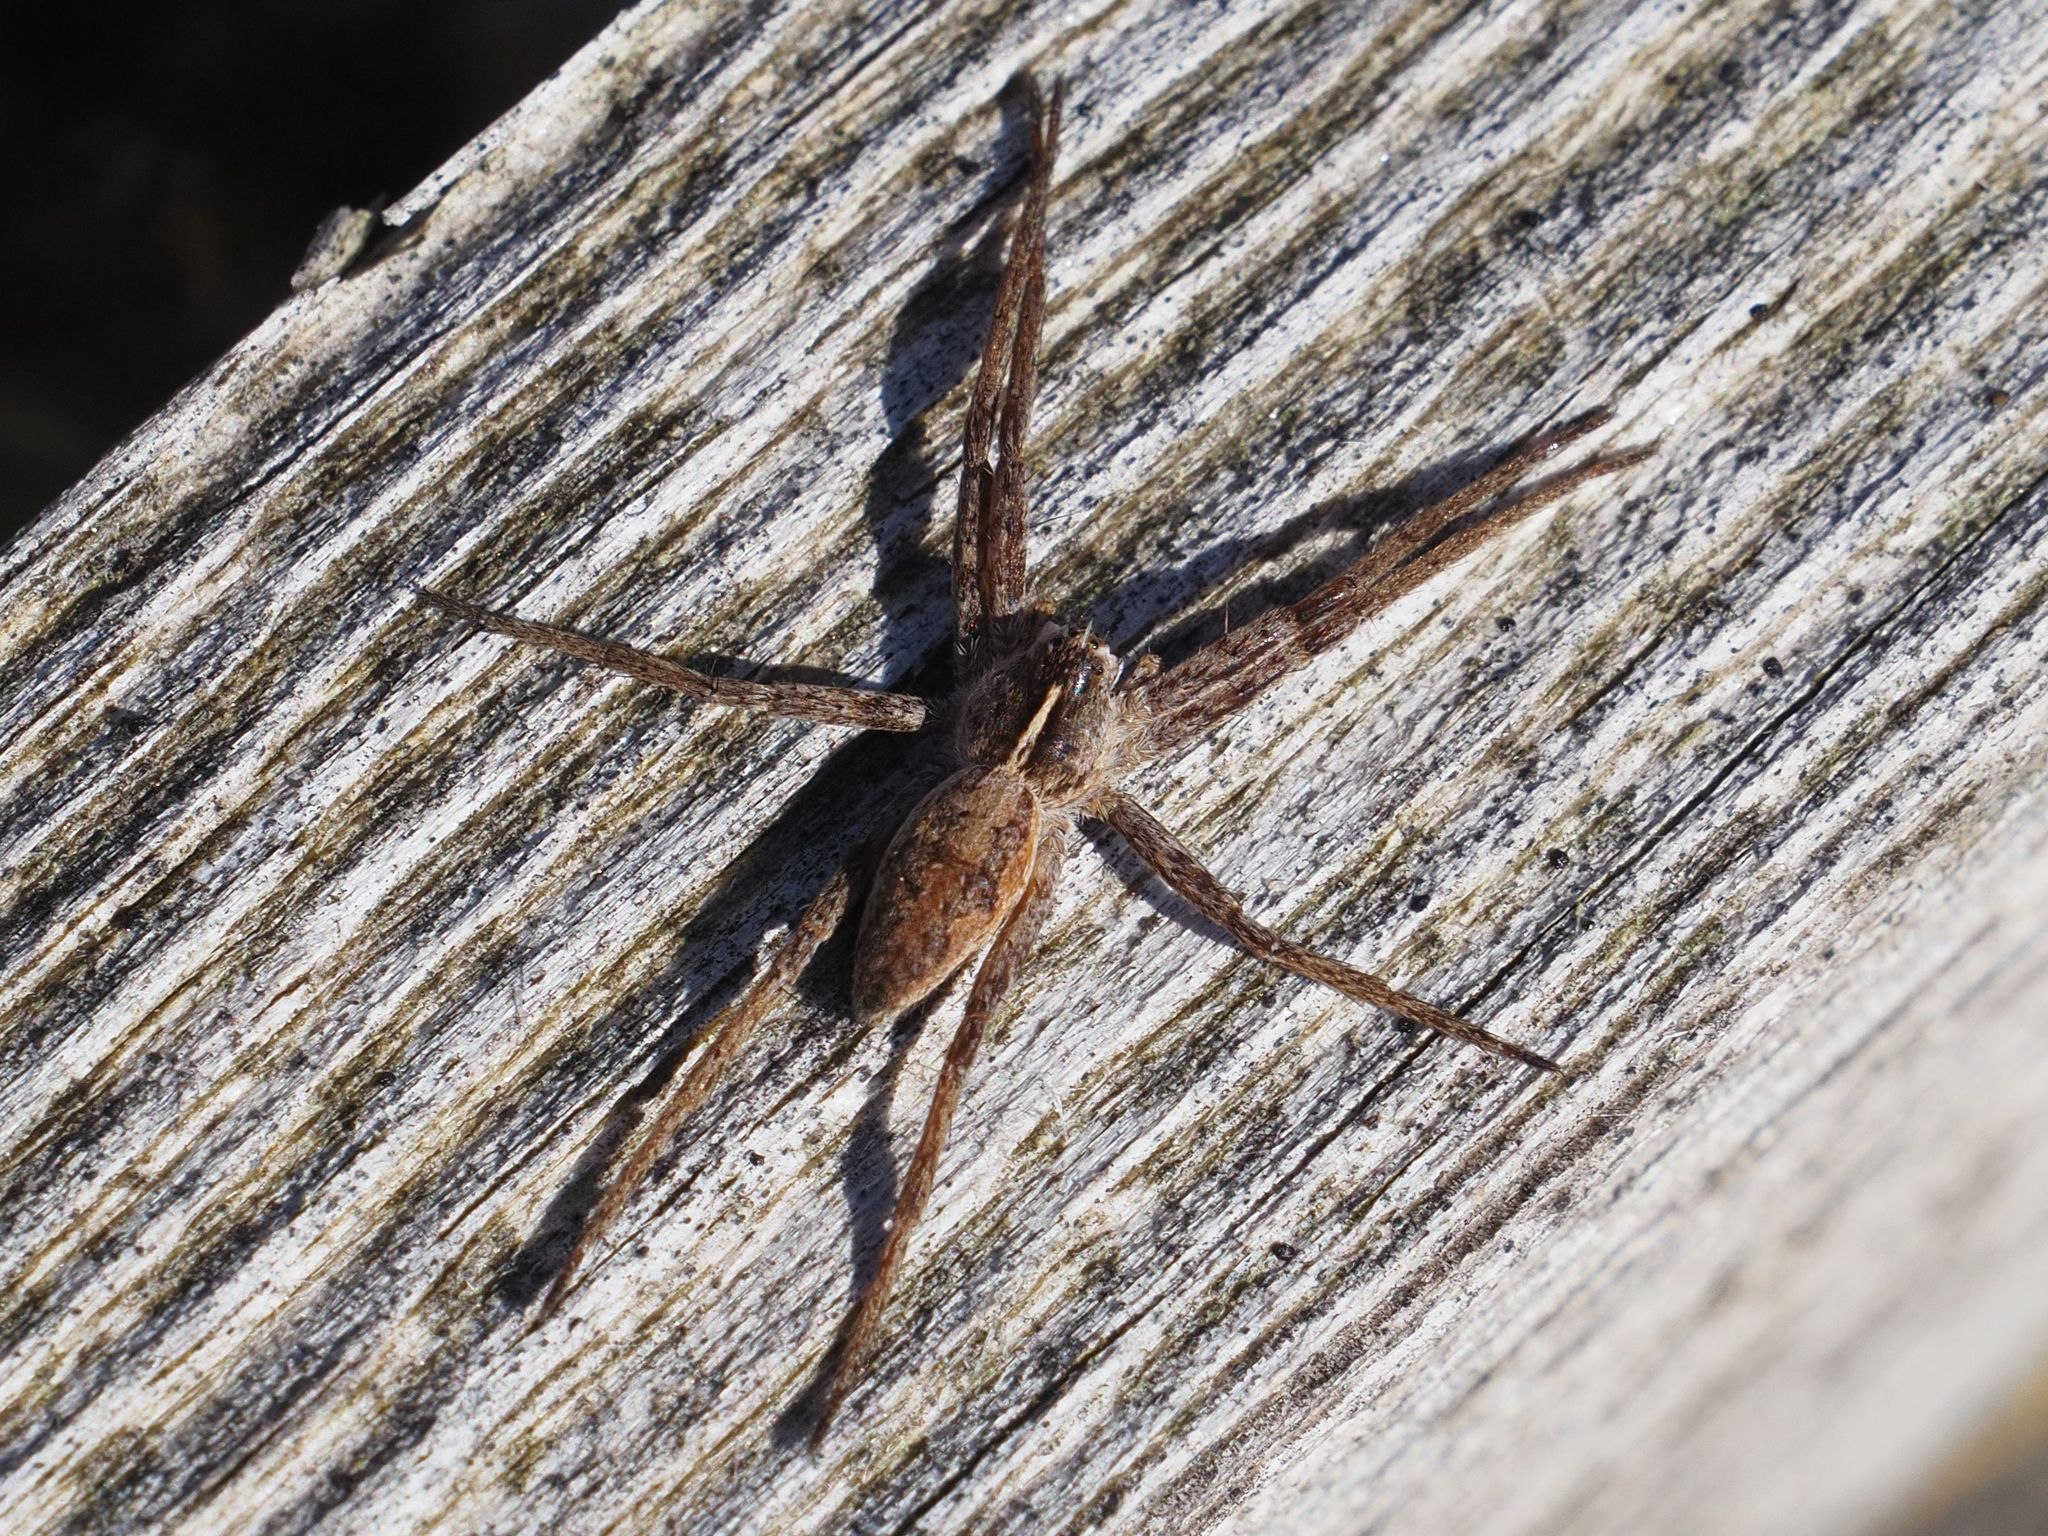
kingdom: Animalia
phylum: Arthropoda
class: Arachnida
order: Araneae
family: Pisauridae
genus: Pisaura
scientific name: Pisaura mirabilis
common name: Tent spider
